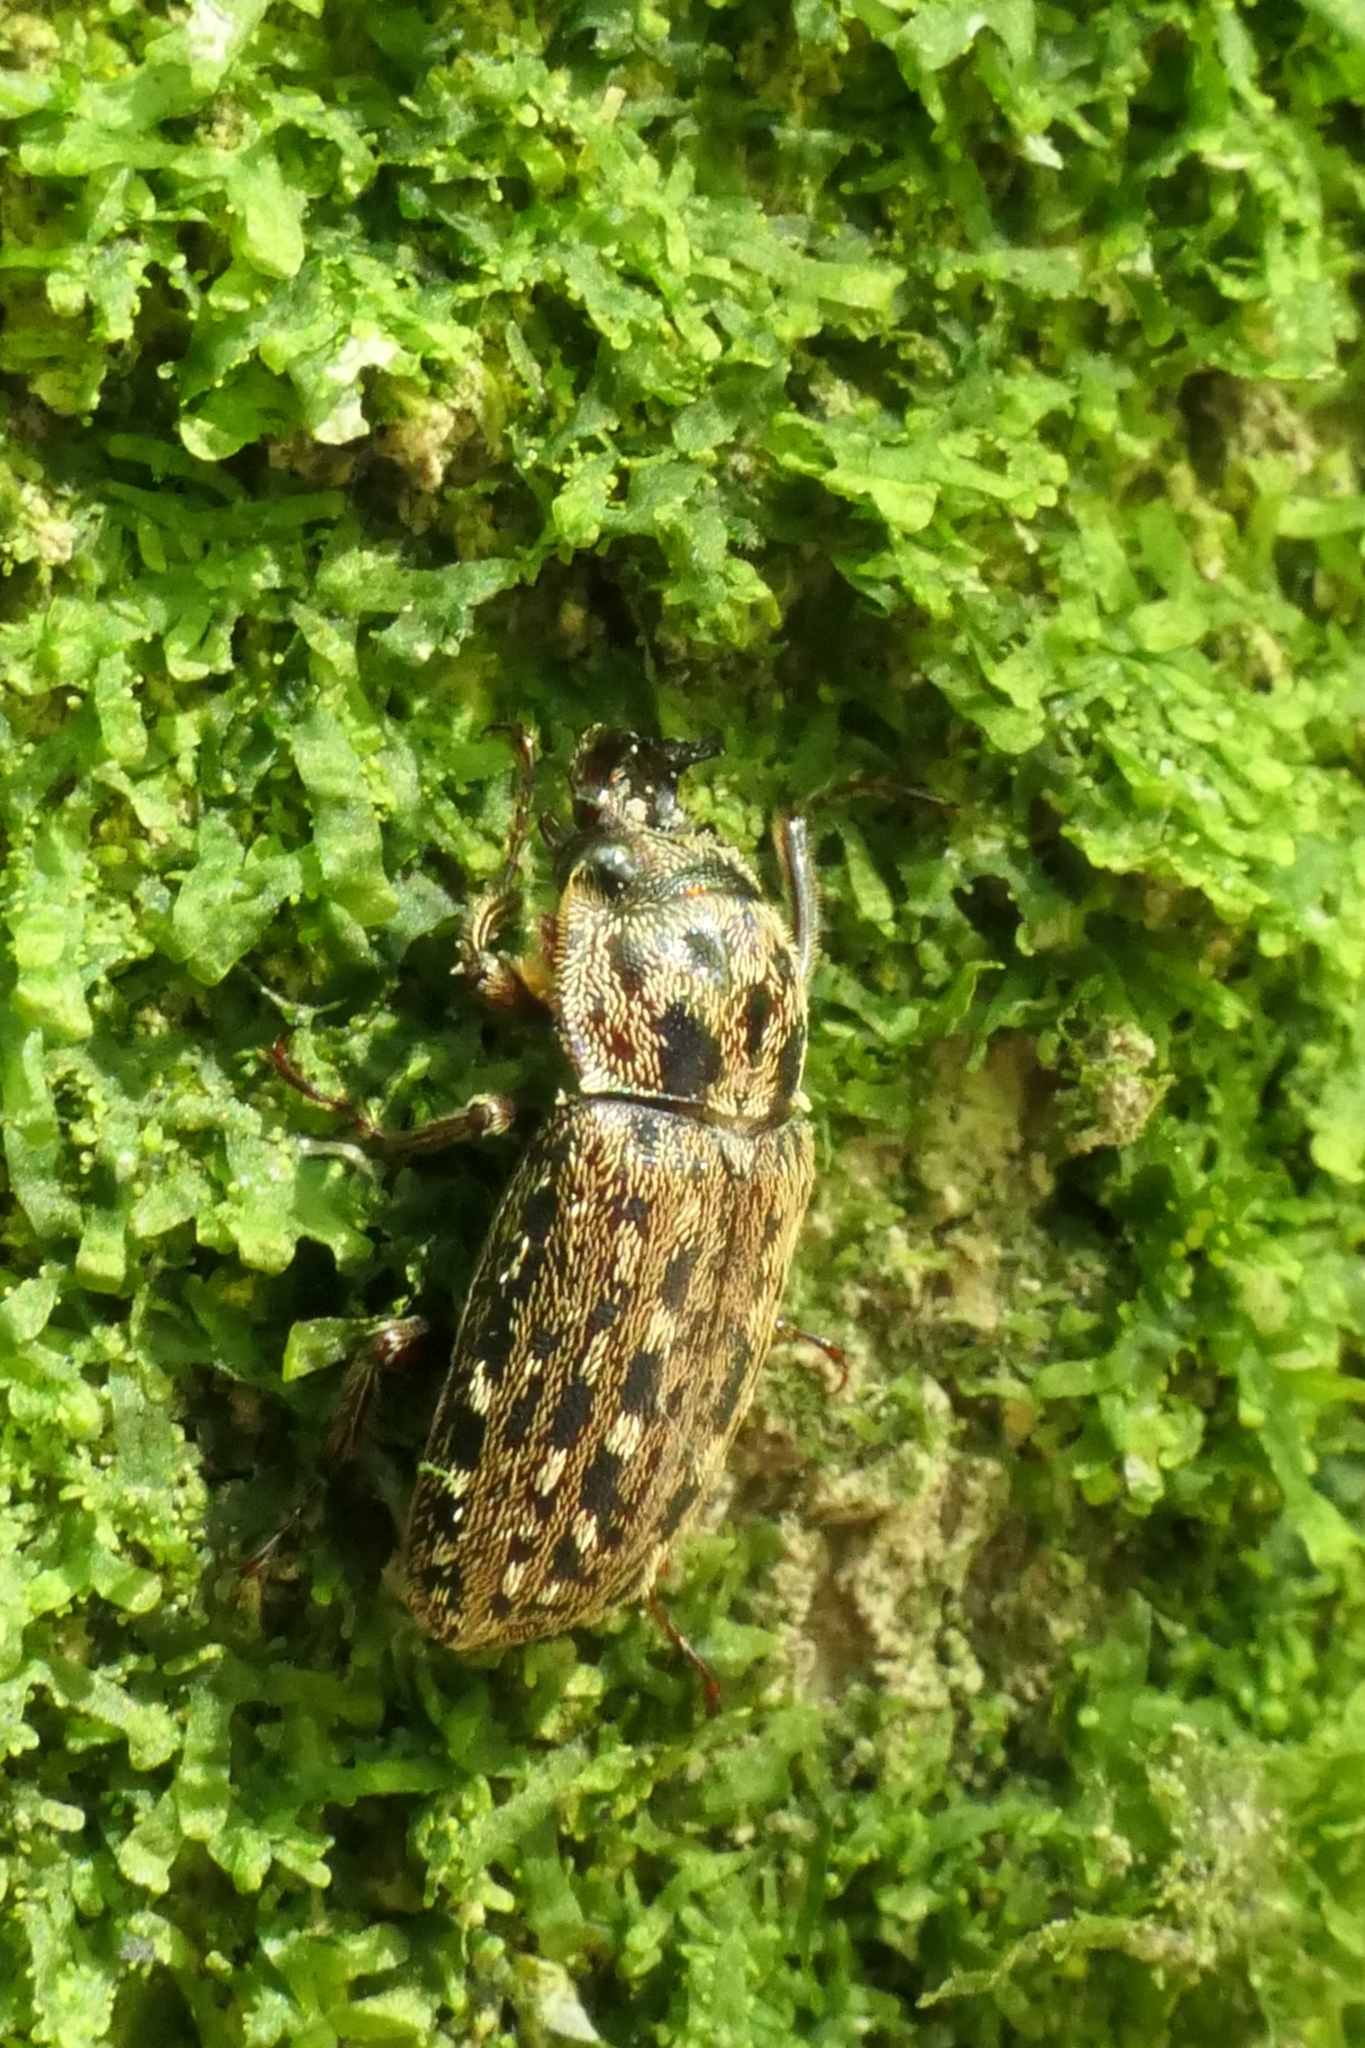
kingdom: Animalia
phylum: Arthropoda
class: Insecta
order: Coleoptera
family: Lucanidae
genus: Mitophyllus
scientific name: Mitophyllus irroratus
